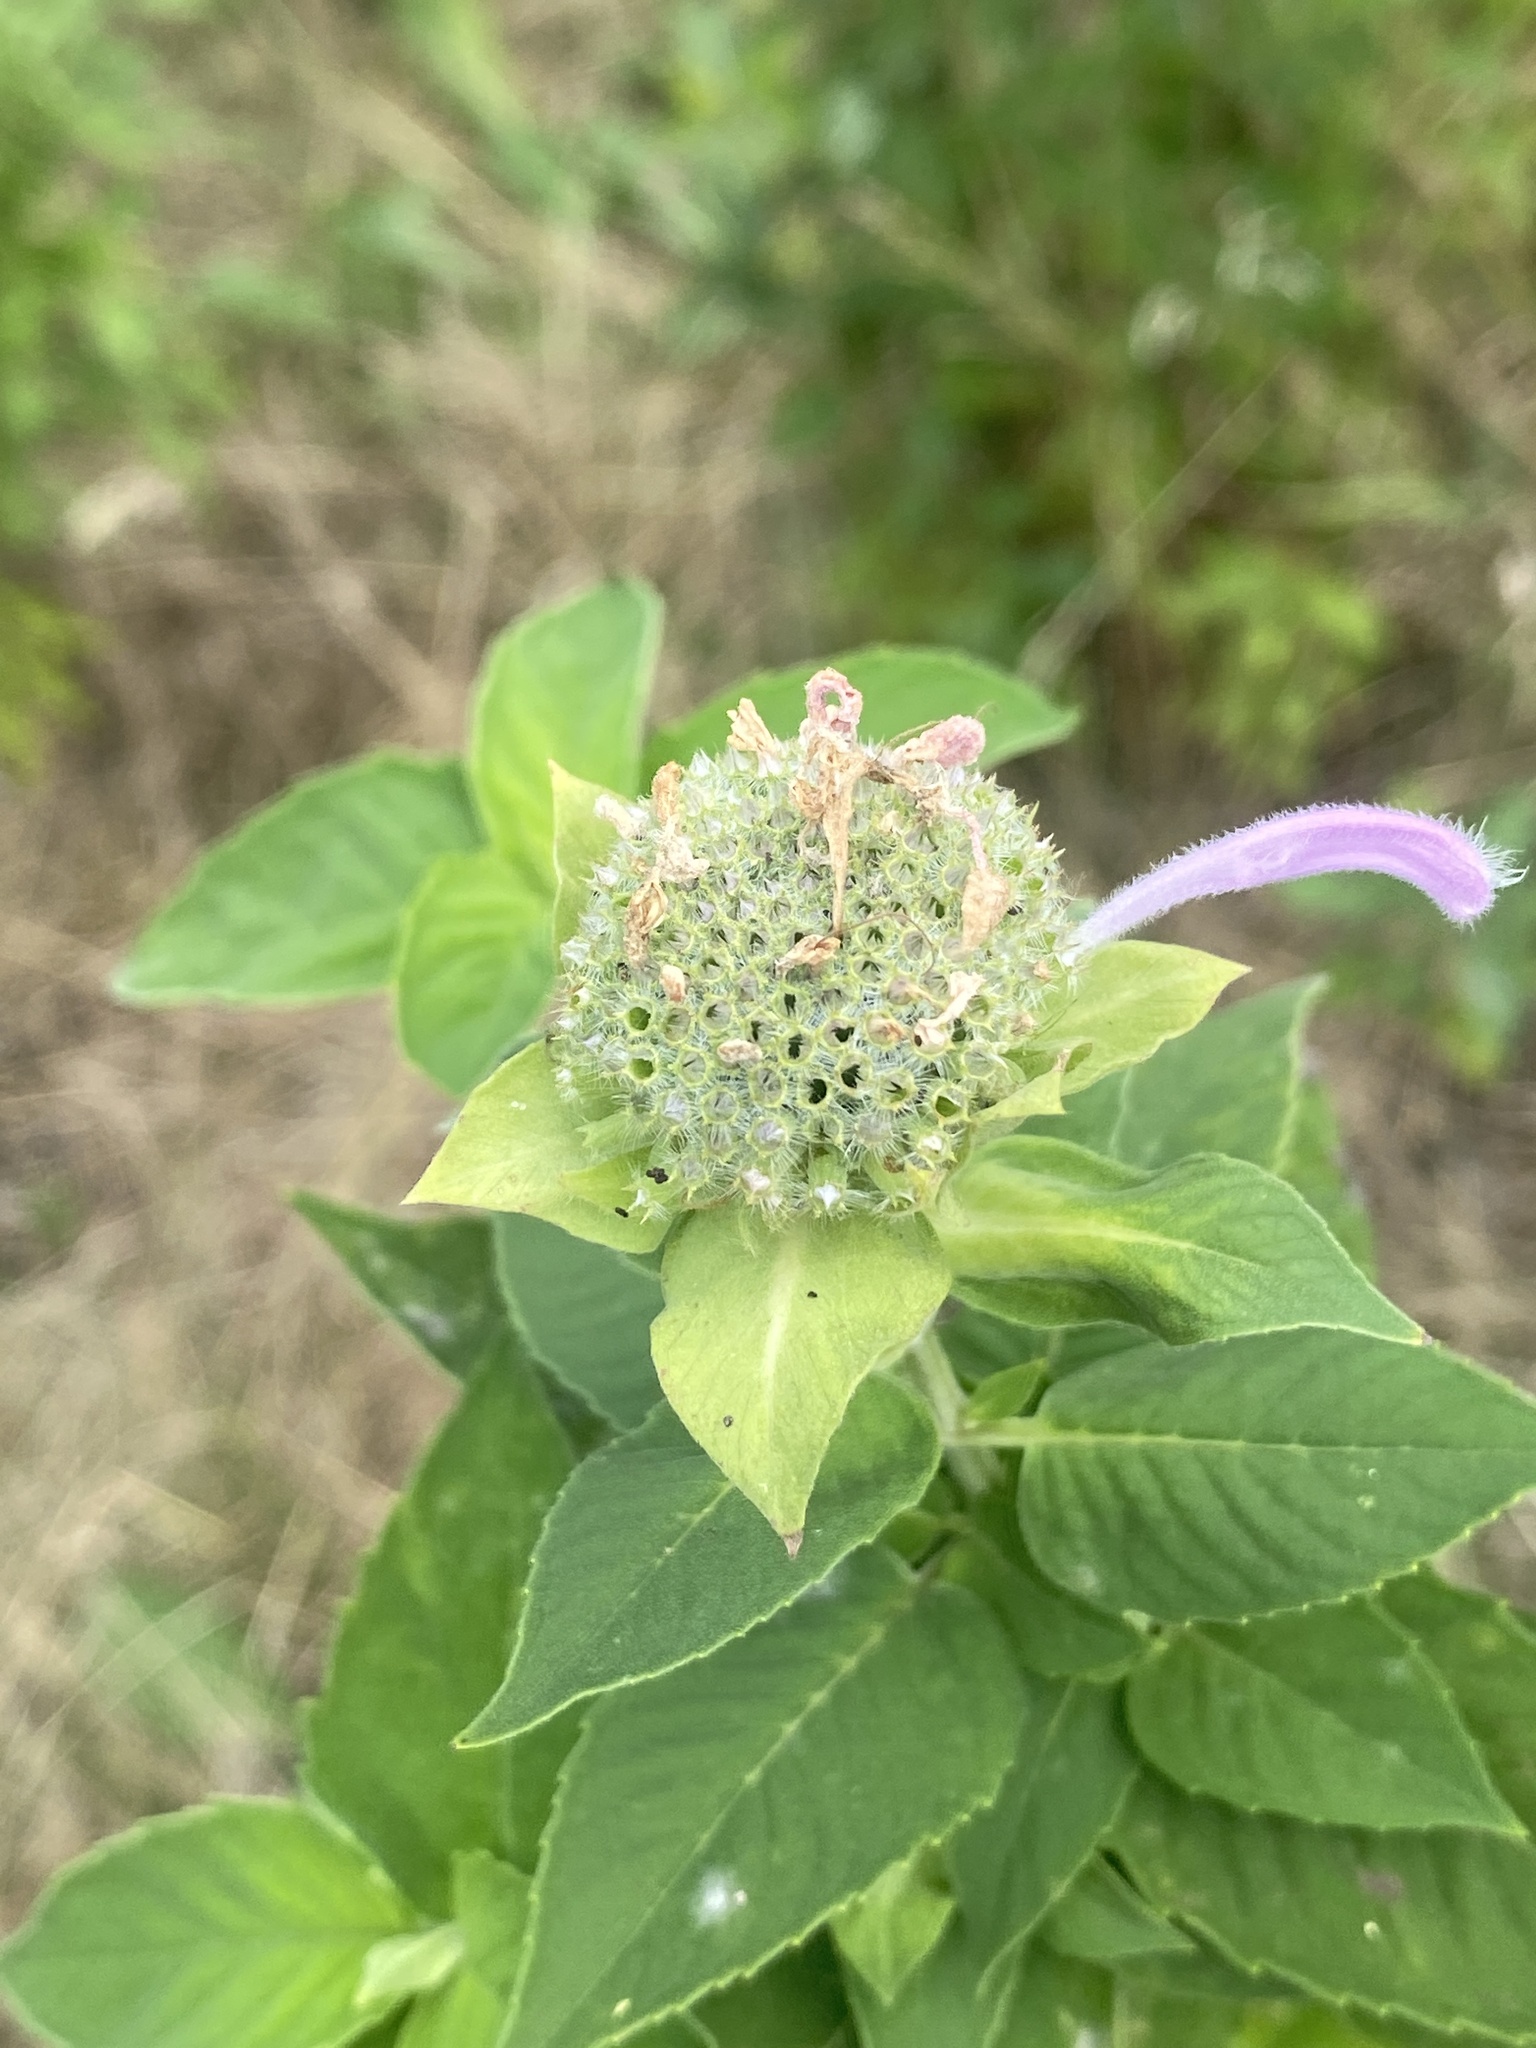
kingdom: Plantae
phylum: Tracheophyta
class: Magnoliopsida
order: Lamiales
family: Lamiaceae
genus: Monarda
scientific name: Monarda fistulosa
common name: Purple beebalm
